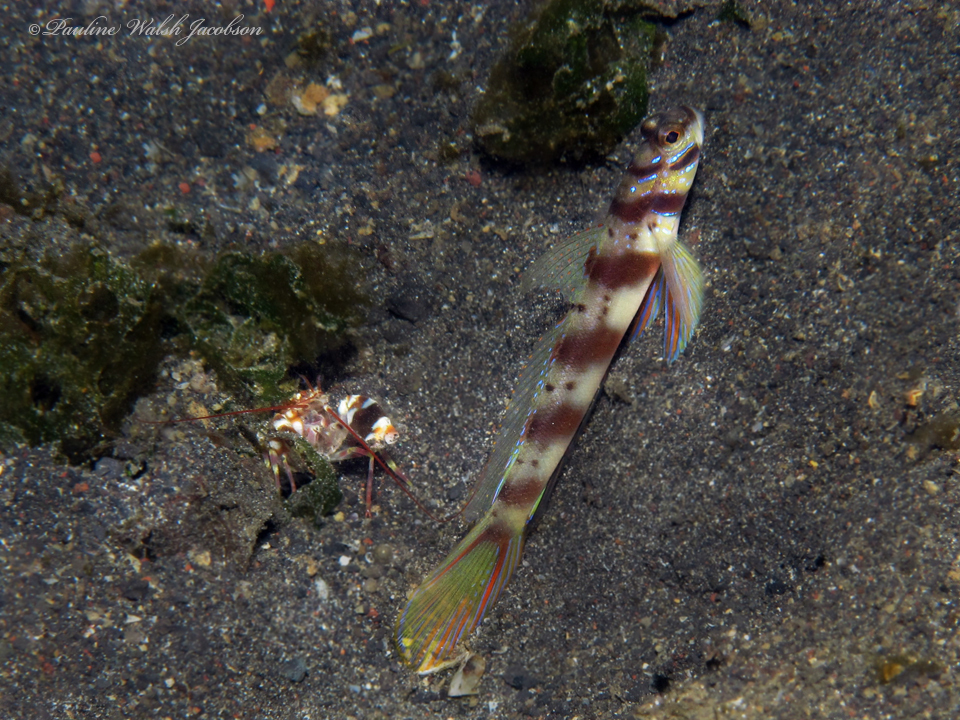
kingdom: Animalia
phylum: Chordata
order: Perciformes
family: Gobiidae
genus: Amblyeleotris
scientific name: Amblyeleotris diagonalis
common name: Diagonal shrimp goby
